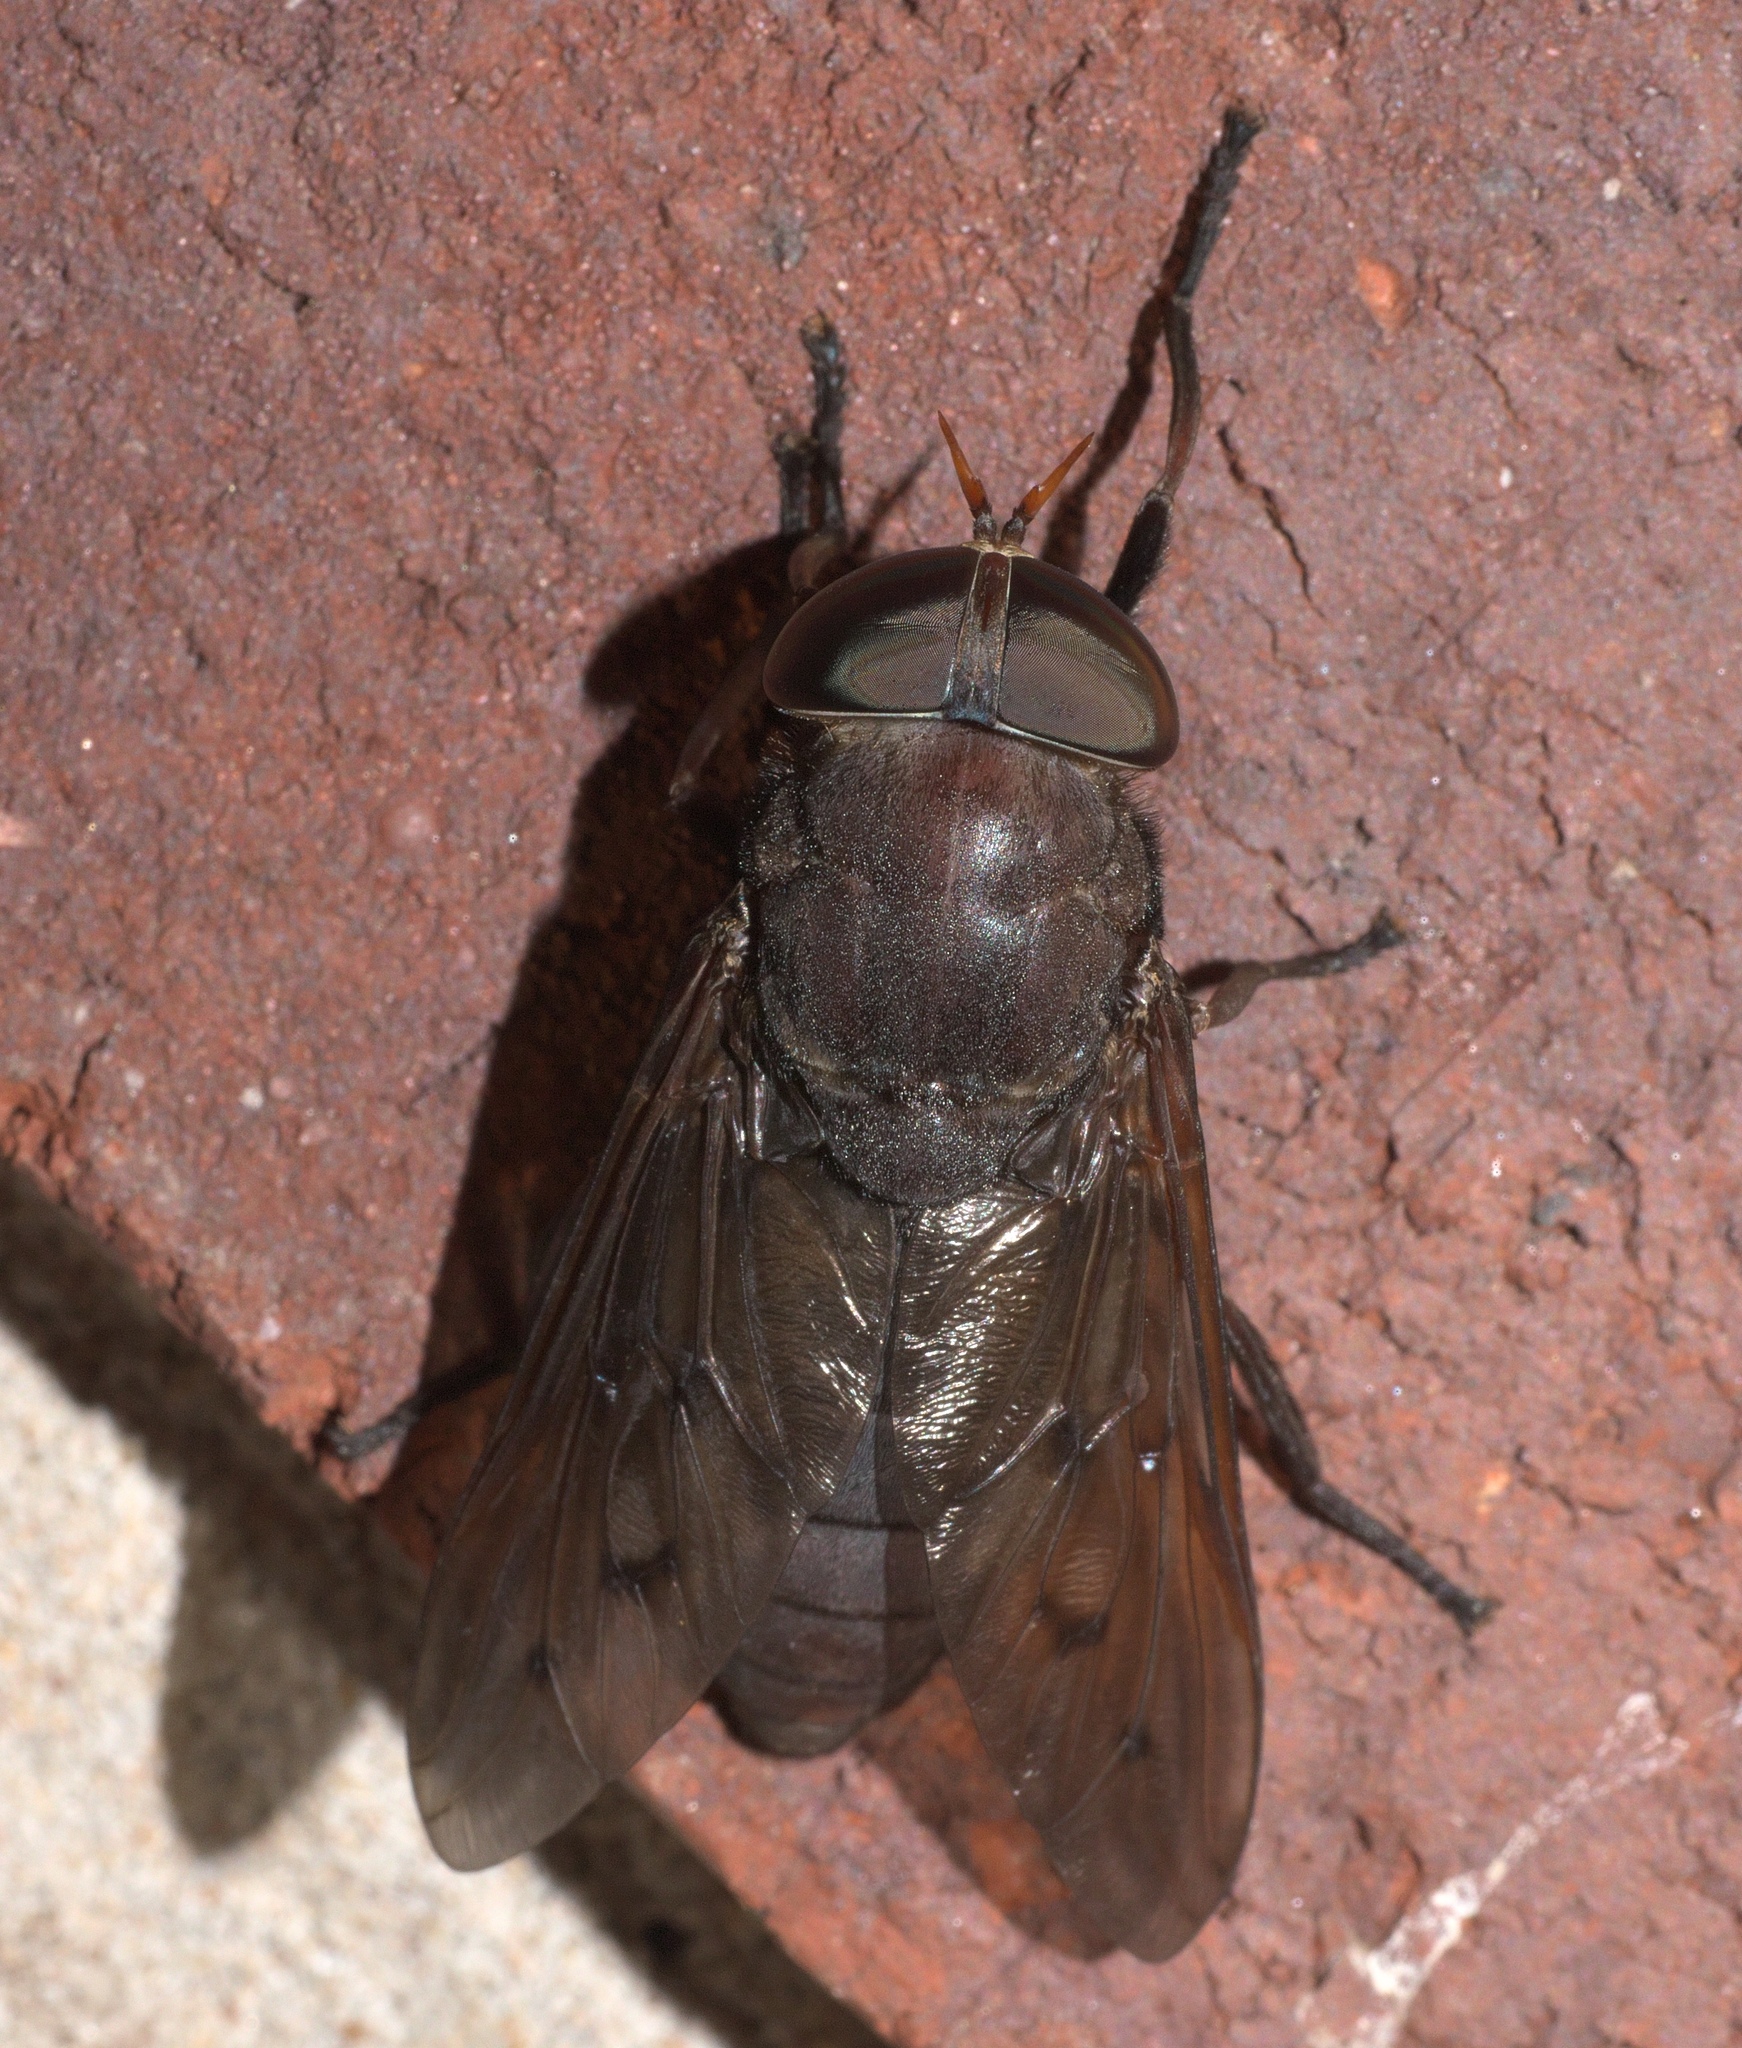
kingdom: Animalia
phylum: Arthropoda
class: Insecta
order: Diptera
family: Tabanidae
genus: Tabanus
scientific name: Tabanus proximus
